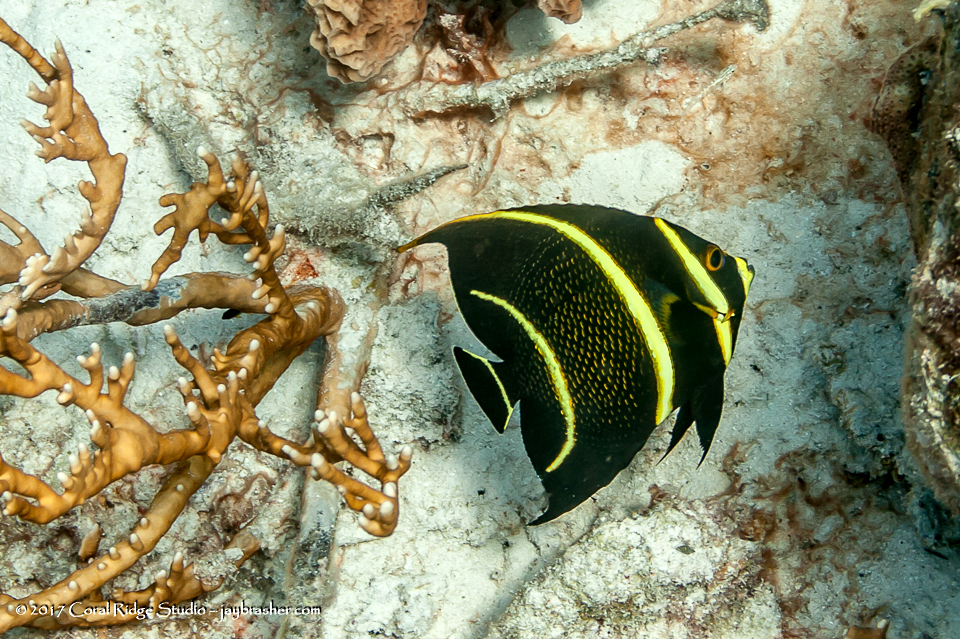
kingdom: Animalia
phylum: Chordata
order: Perciformes
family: Pomacanthidae
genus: Pomacanthus
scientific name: Pomacanthus paru
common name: French angelfish
